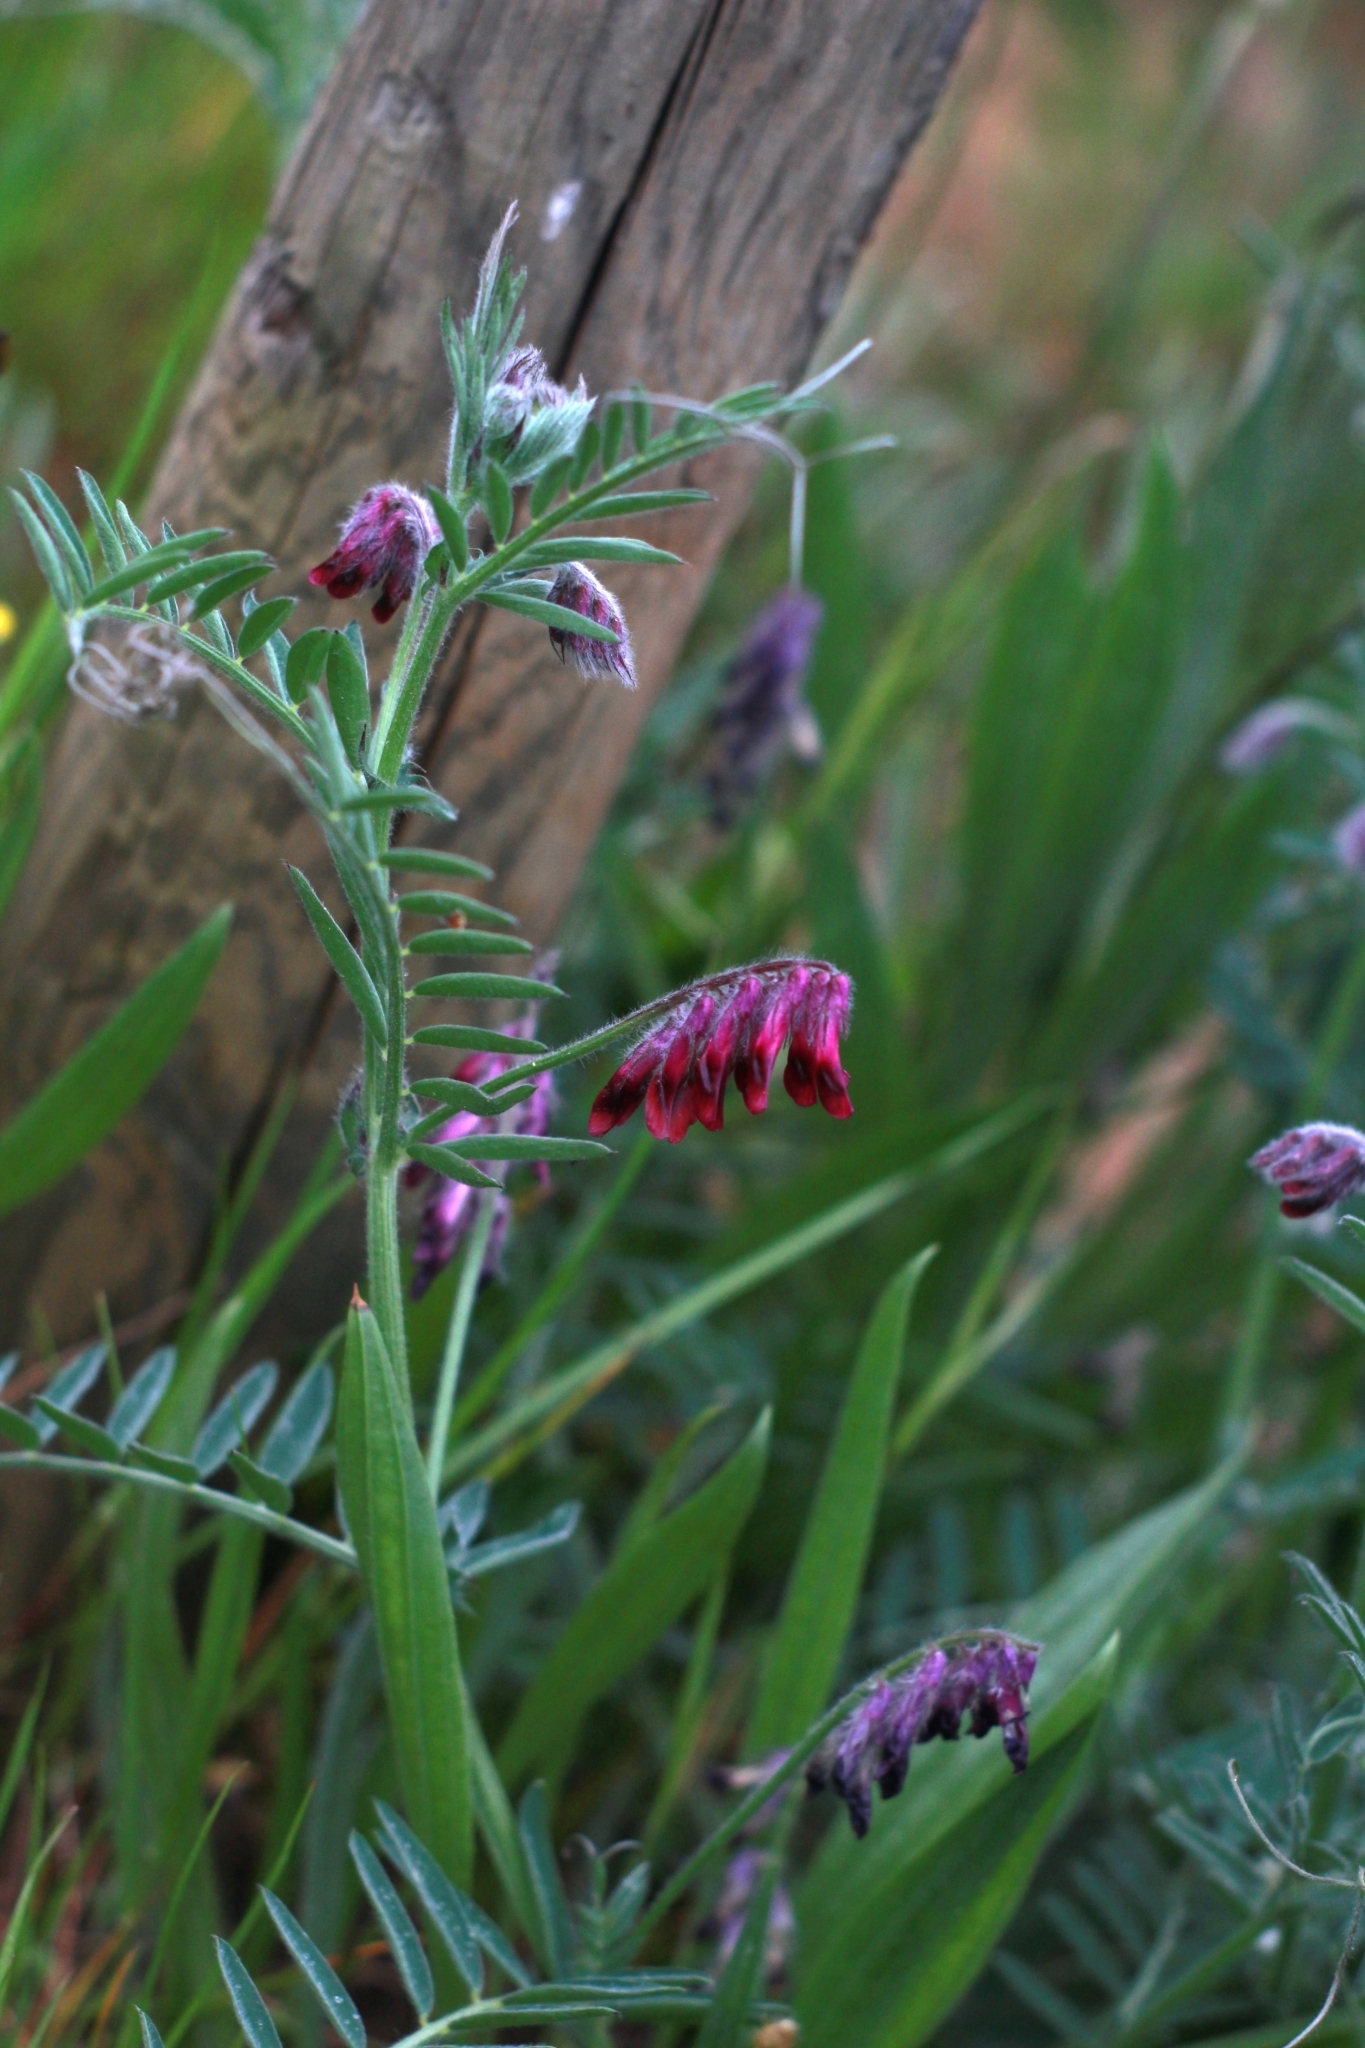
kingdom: Plantae
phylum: Tracheophyta
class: Magnoliopsida
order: Fabales
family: Fabaceae
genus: Vicia
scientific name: Vicia benghalensis
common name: Purple vetch
